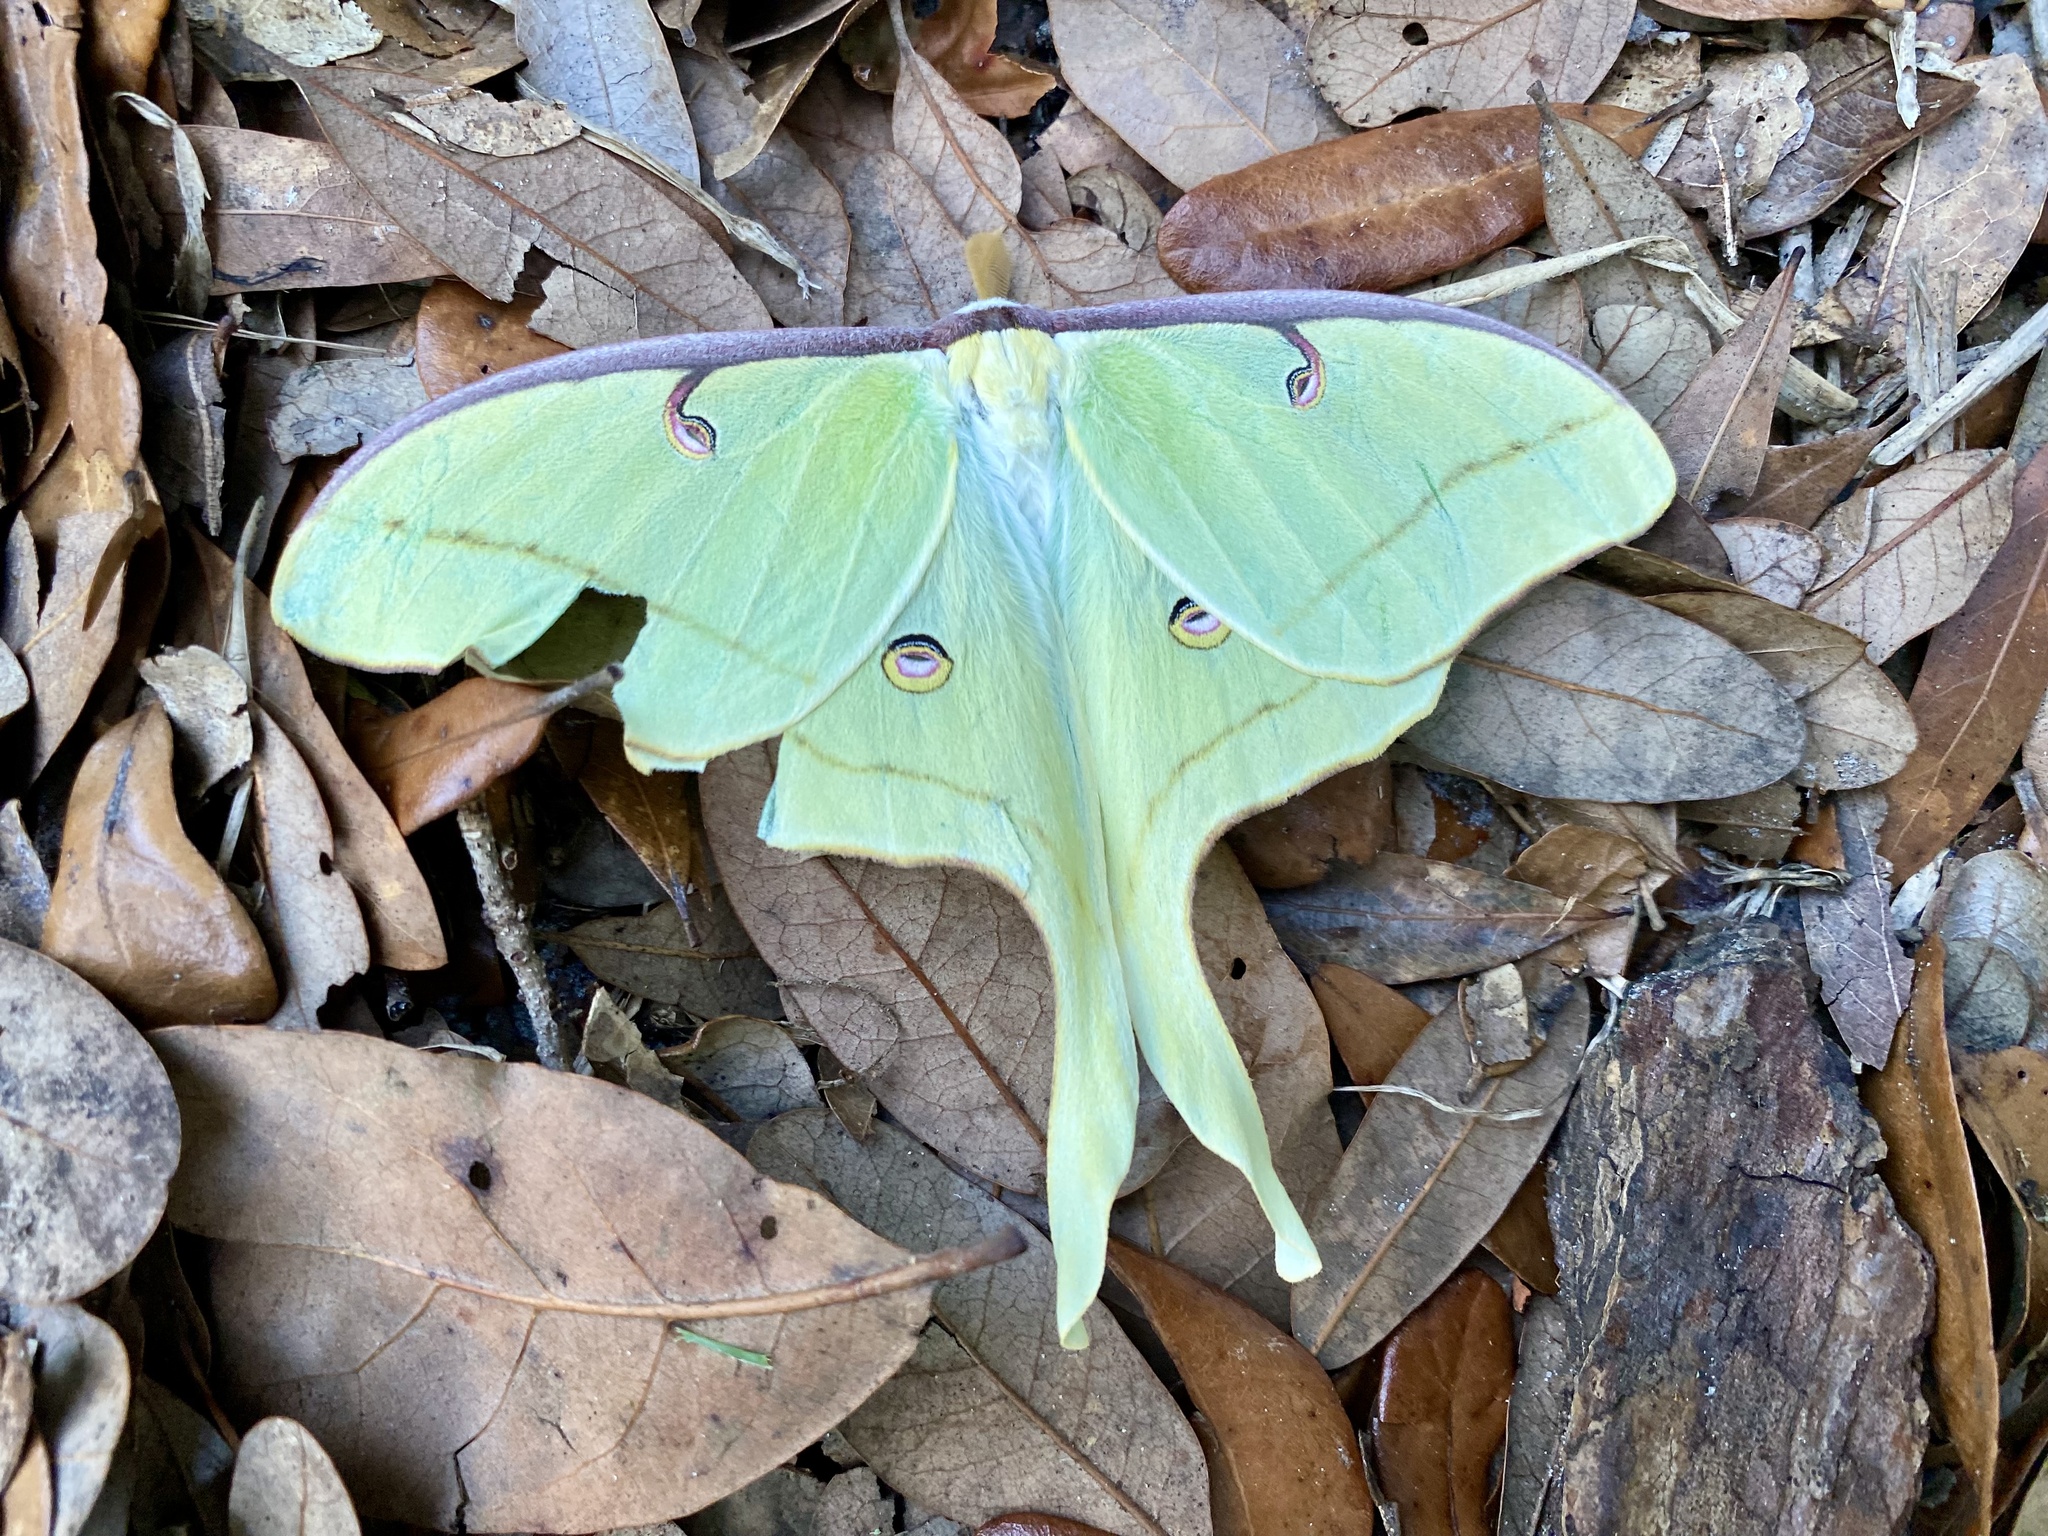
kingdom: Animalia
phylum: Arthropoda
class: Insecta
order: Lepidoptera
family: Saturniidae
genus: Actias
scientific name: Actias luna
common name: Luna moth
